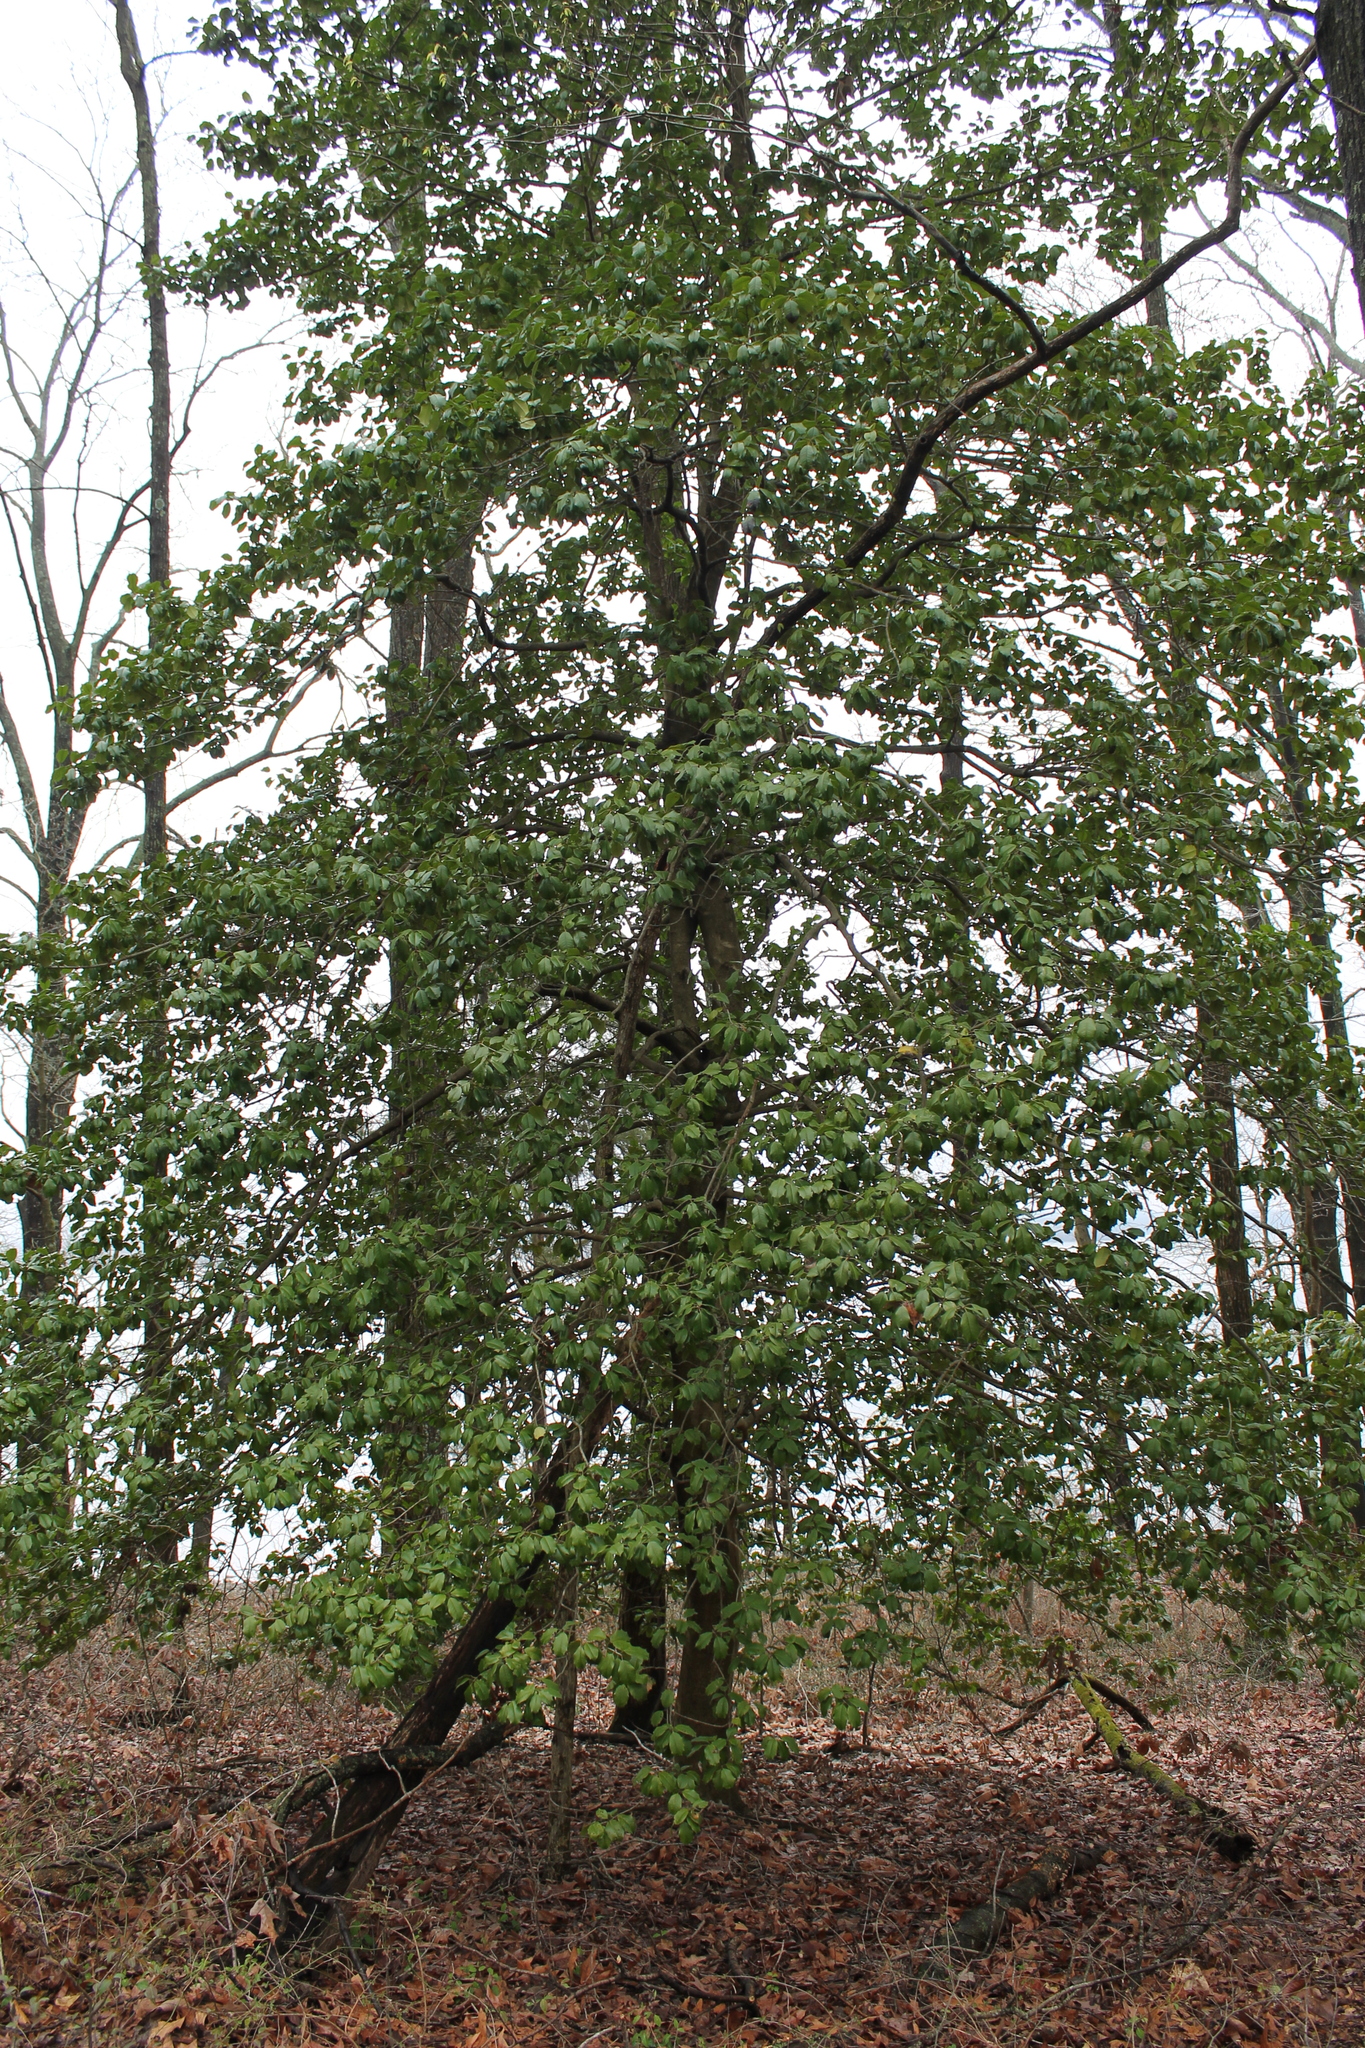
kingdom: Plantae
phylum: Tracheophyta
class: Magnoliopsida
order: Aquifoliales
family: Aquifoliaceae
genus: Ilex
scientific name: Ilex opaca
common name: American holly
